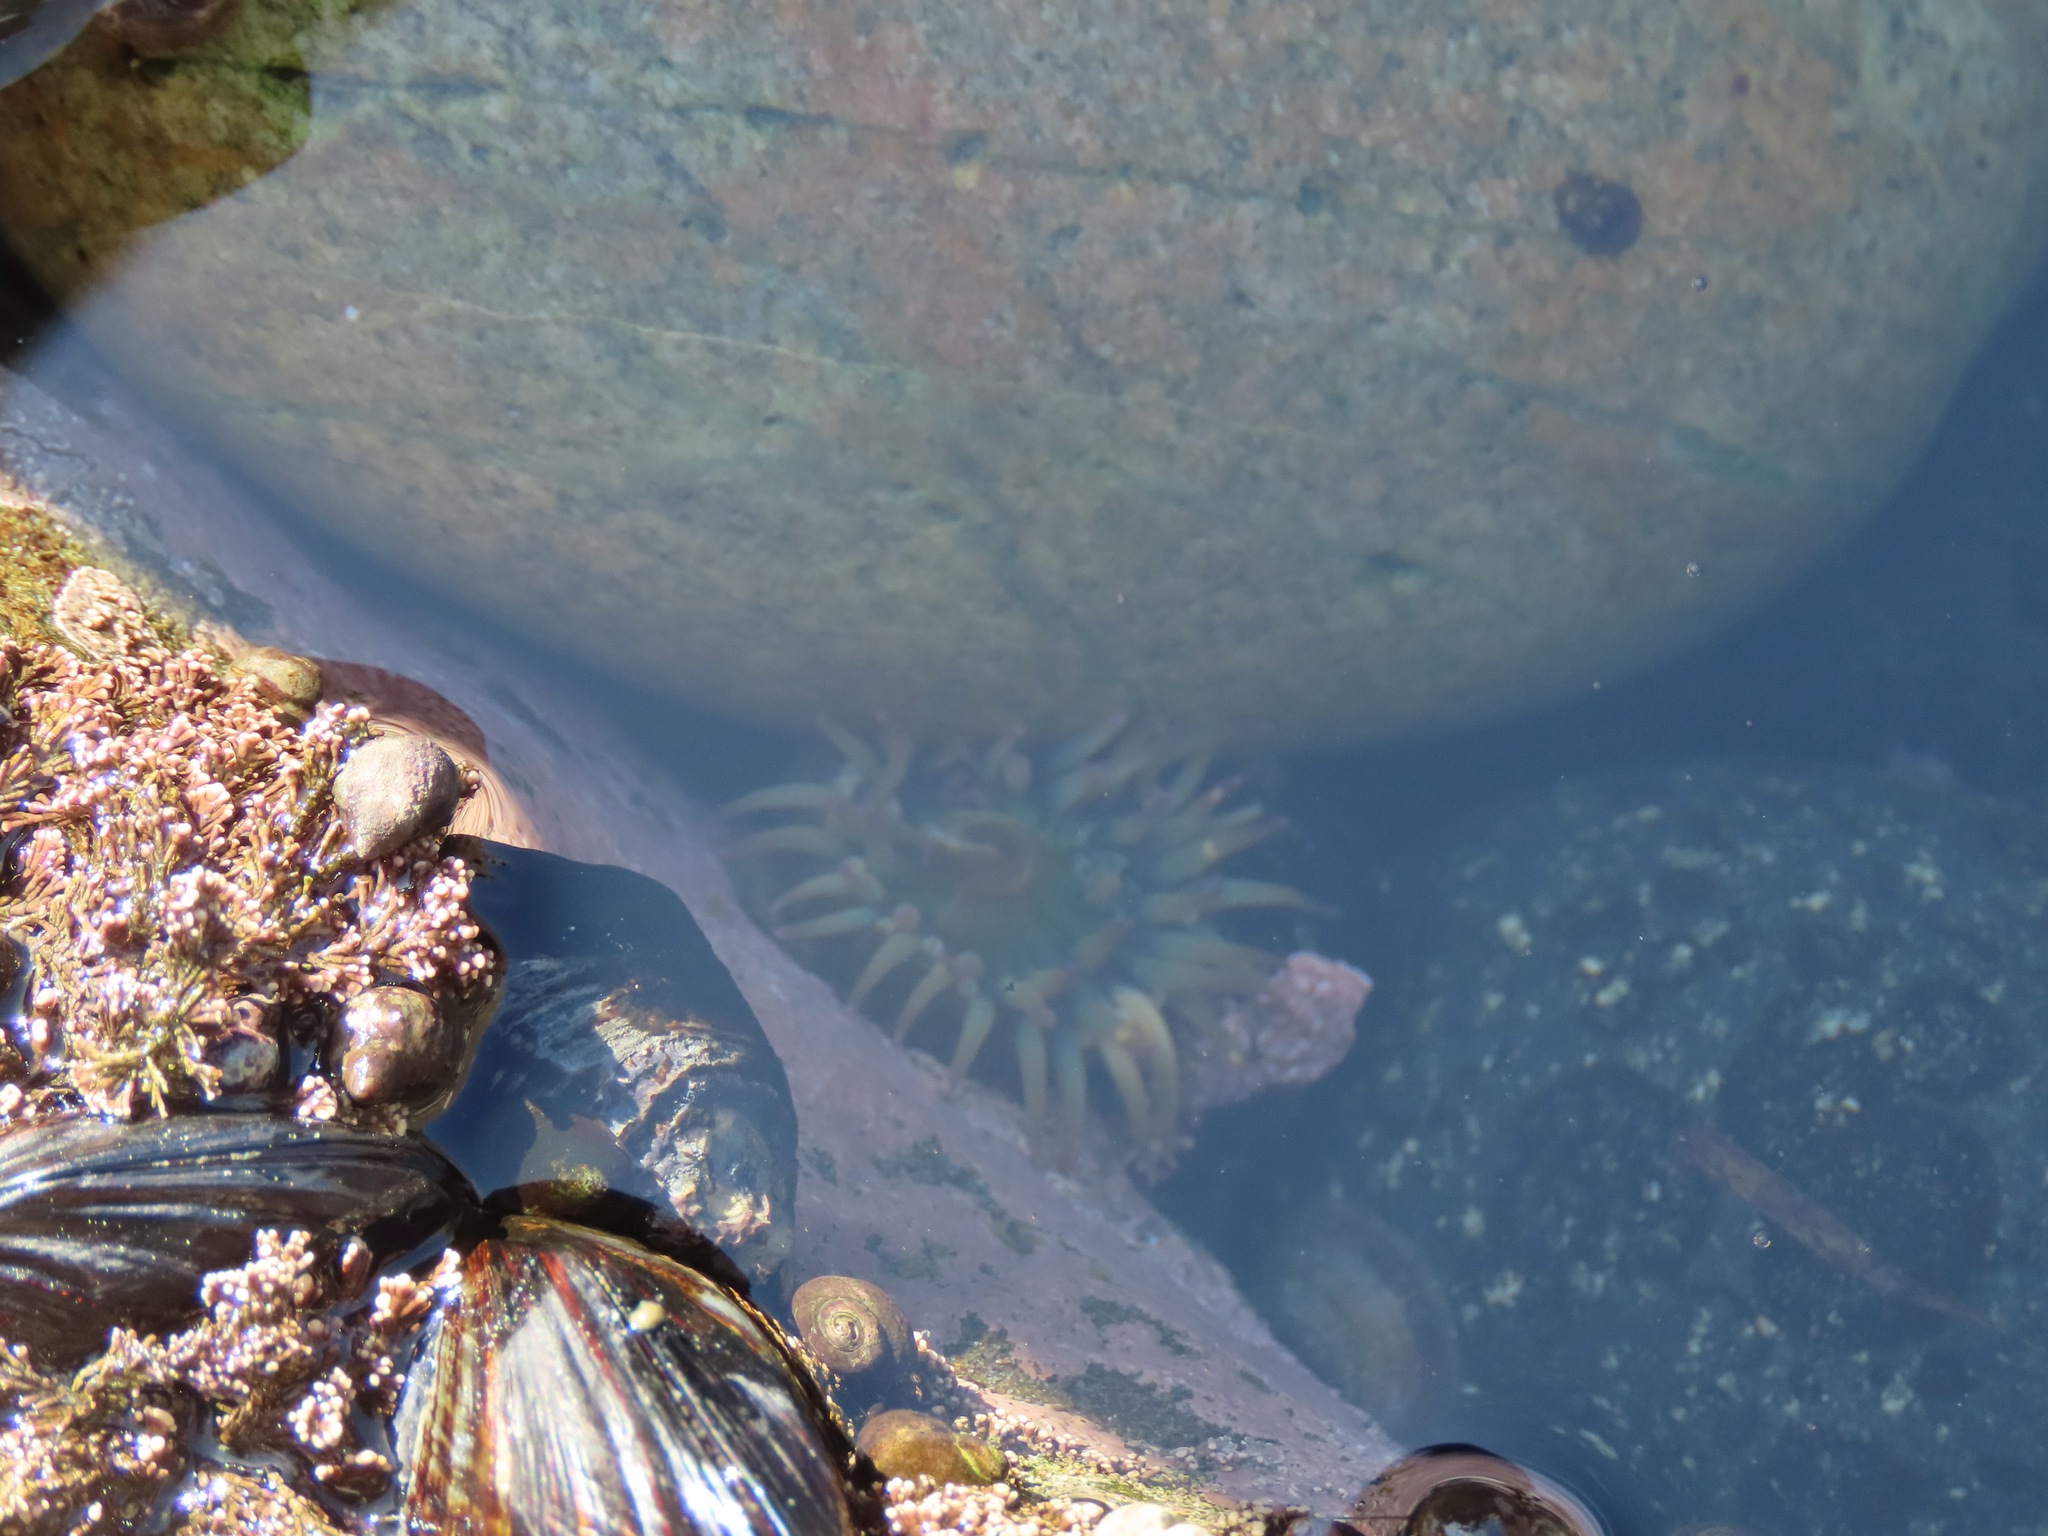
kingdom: Animalia
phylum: Cnidaria
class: Anthozoa
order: Actiniaria
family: Actiniidae
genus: Anthopleura
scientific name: Anthopleura elegantissima
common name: Clonal anemone
